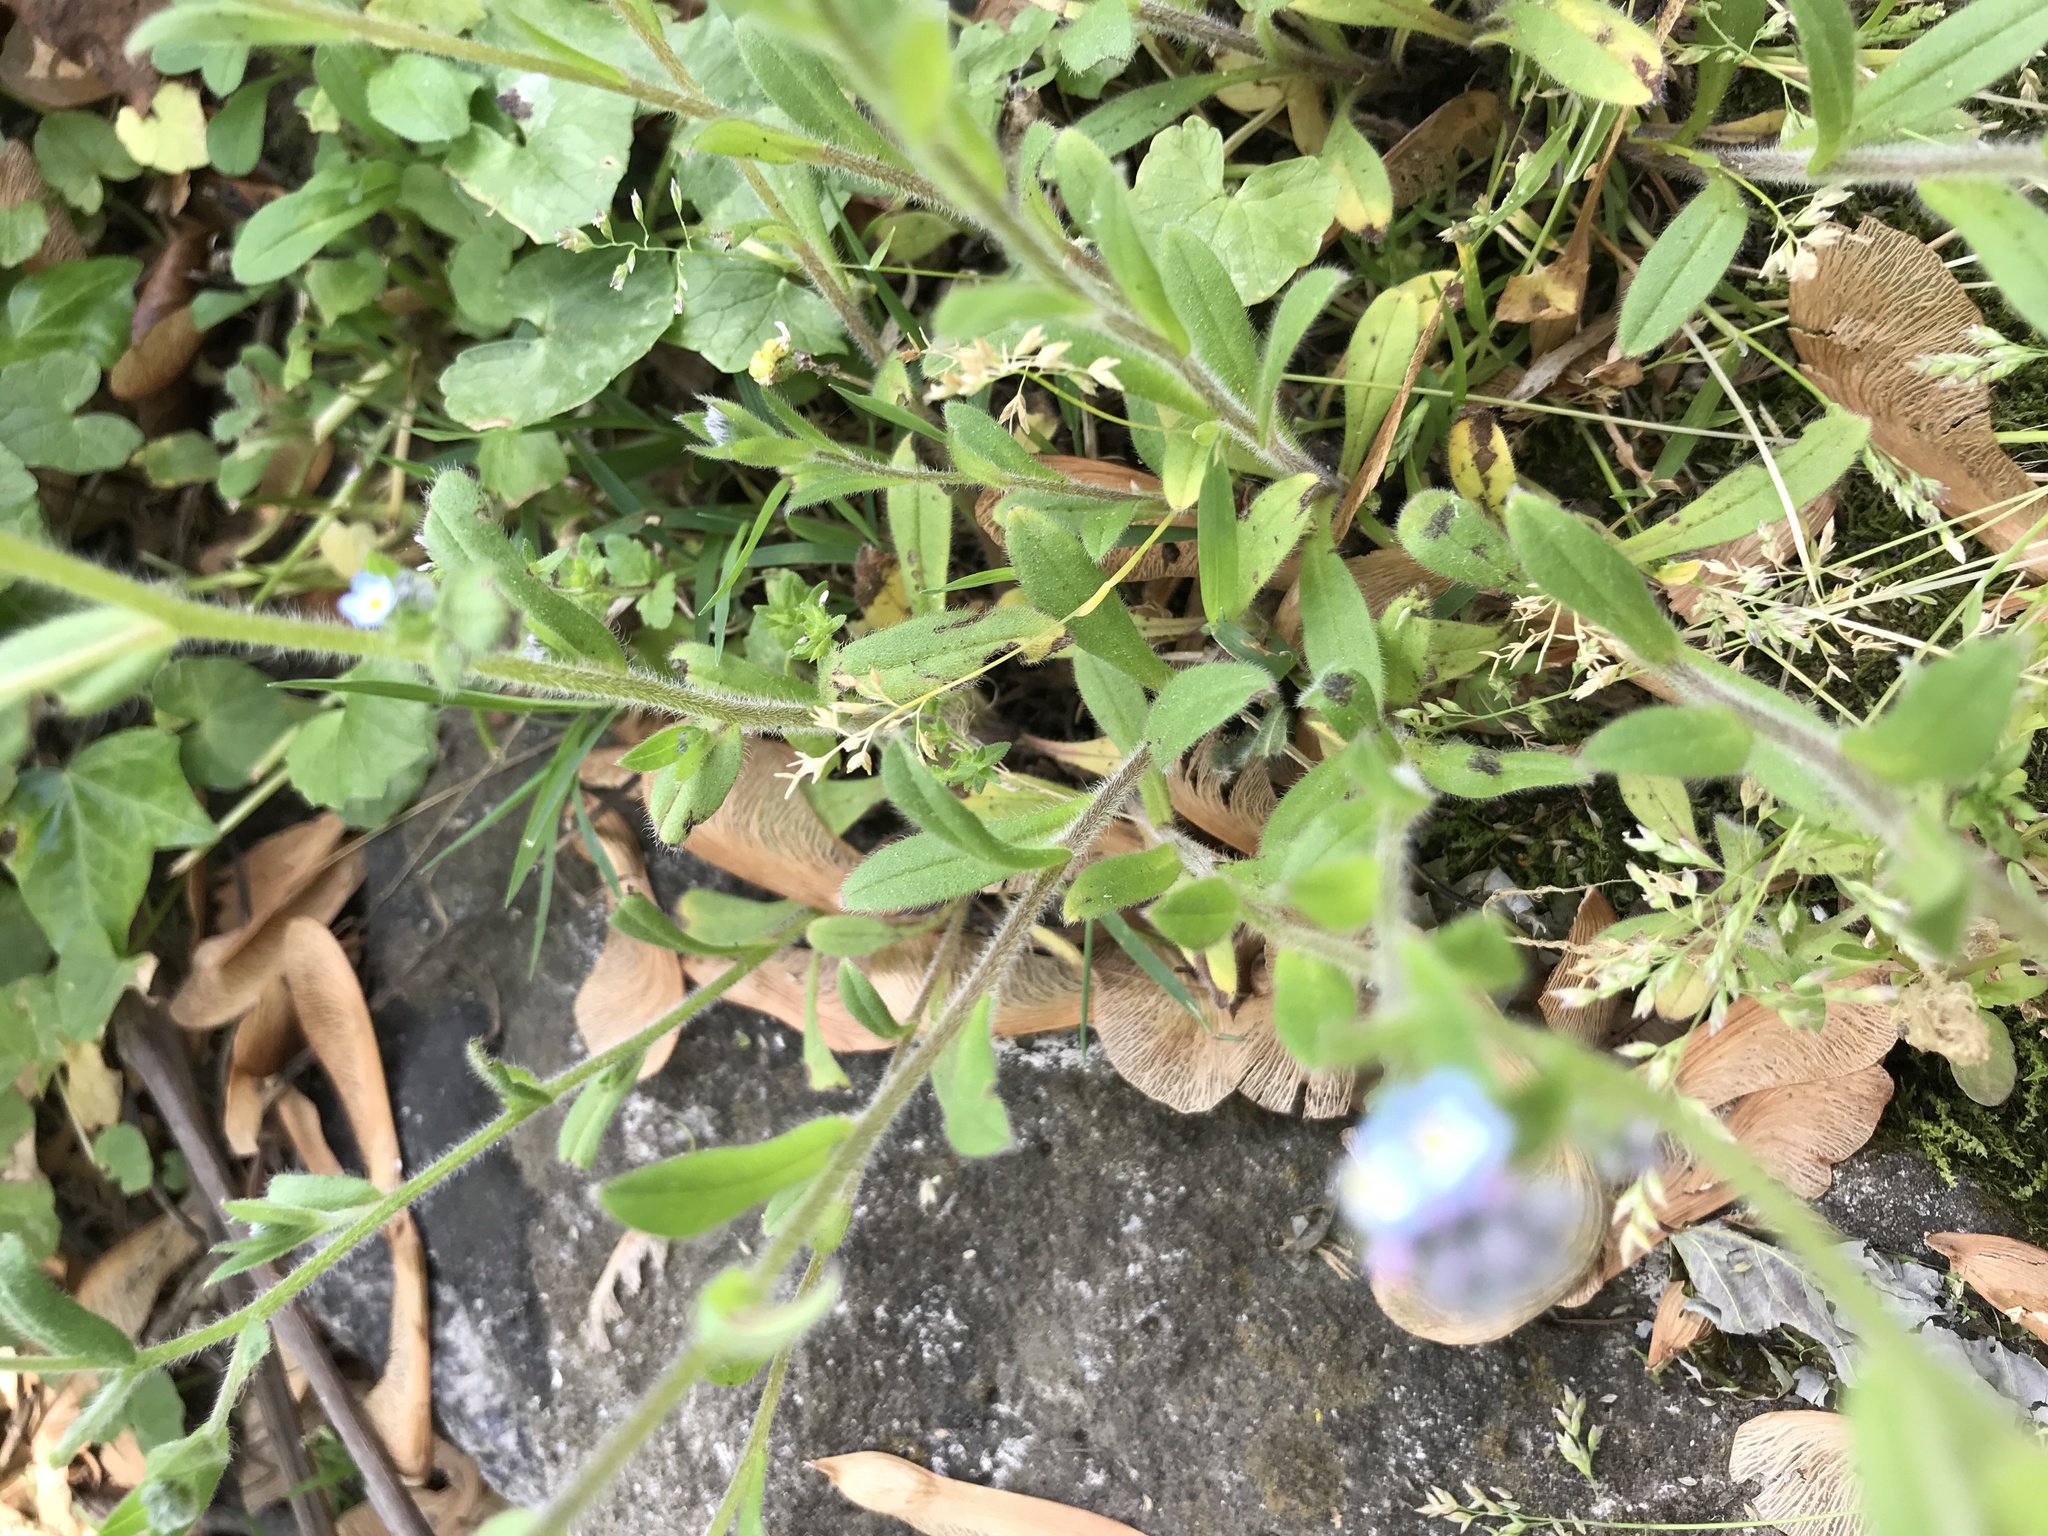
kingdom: Plantae
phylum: Tracheophyta
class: Magnoliopsida
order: Boraginales
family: Boraginaceae
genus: Myosotis
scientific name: Myosotis arvensis
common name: Field forget-me-not
